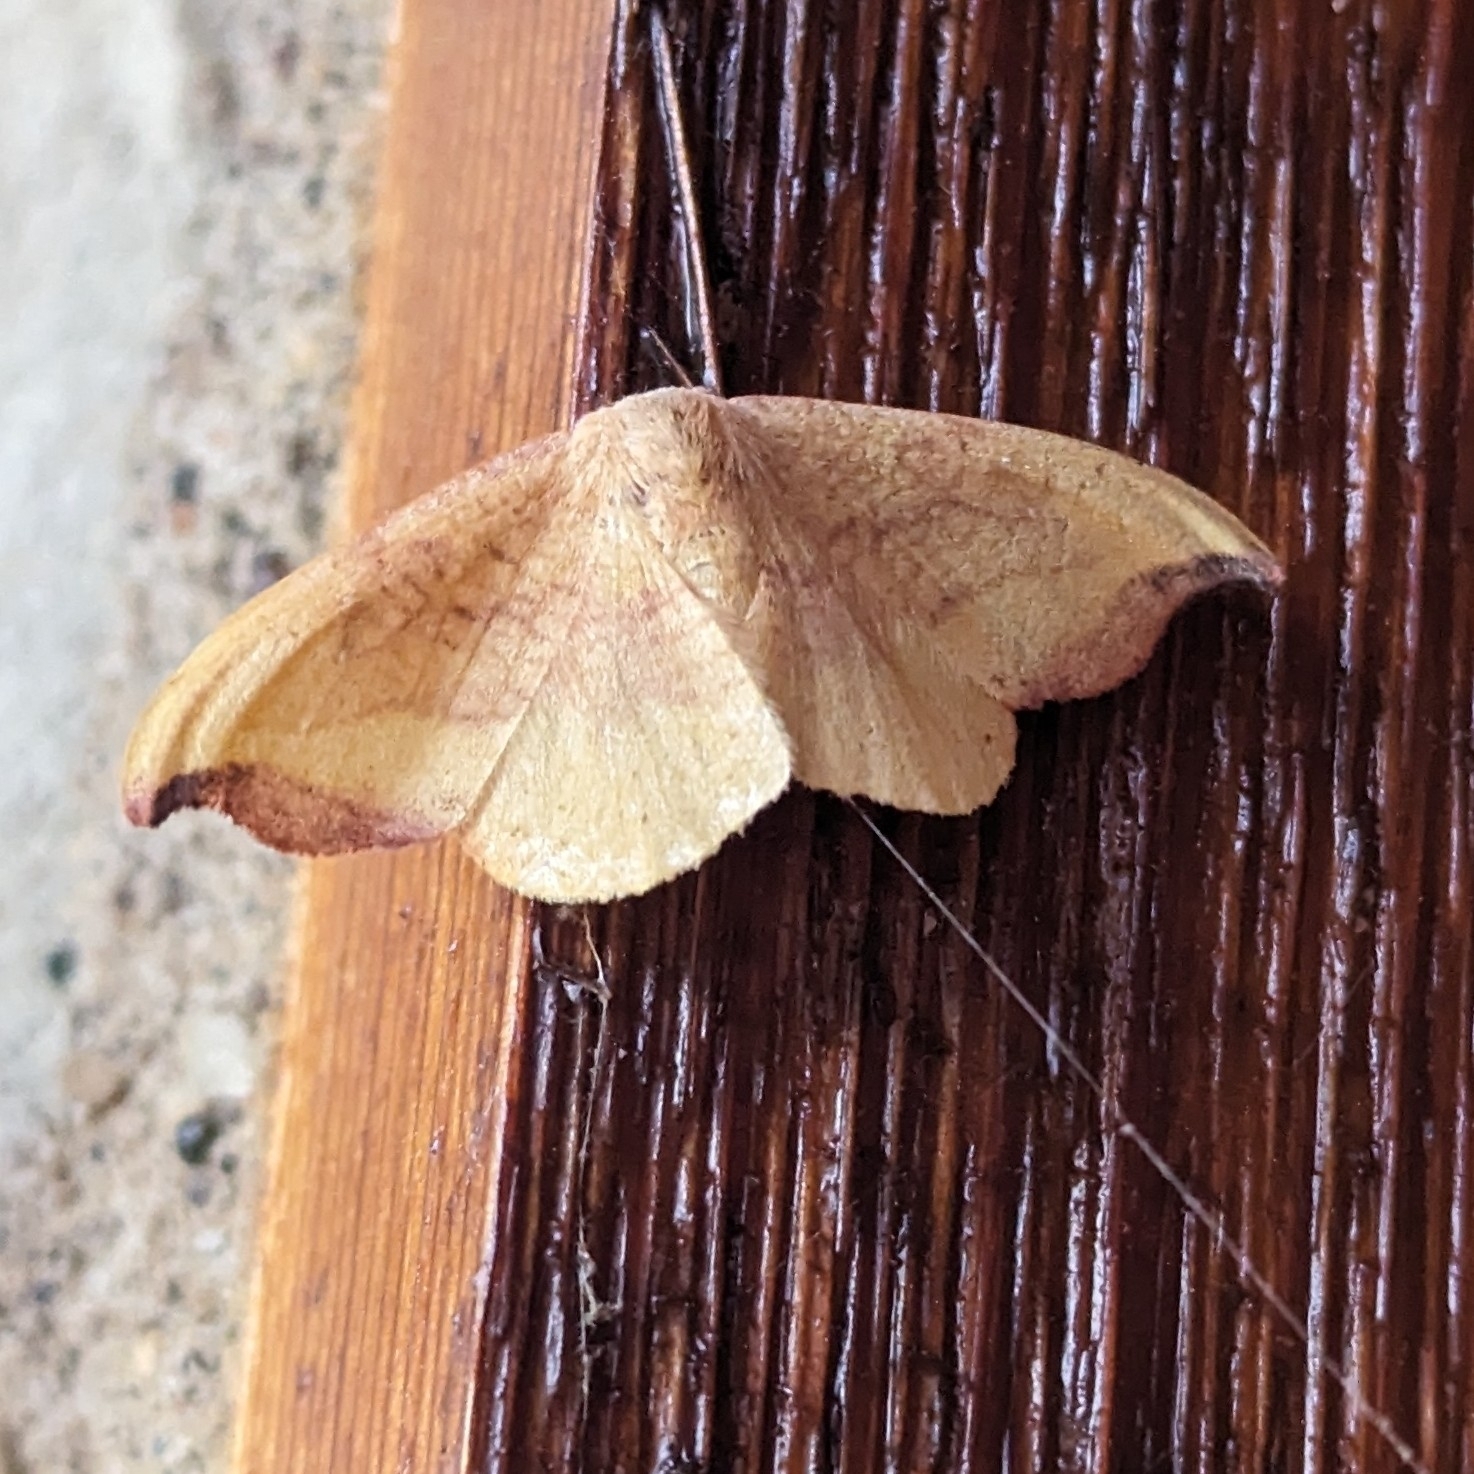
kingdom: Animalia
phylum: Arthropoda
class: Insecta
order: Lepidoptera
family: Drepanidae
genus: Oreta
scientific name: Oreta rosea
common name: Rose hooktip
